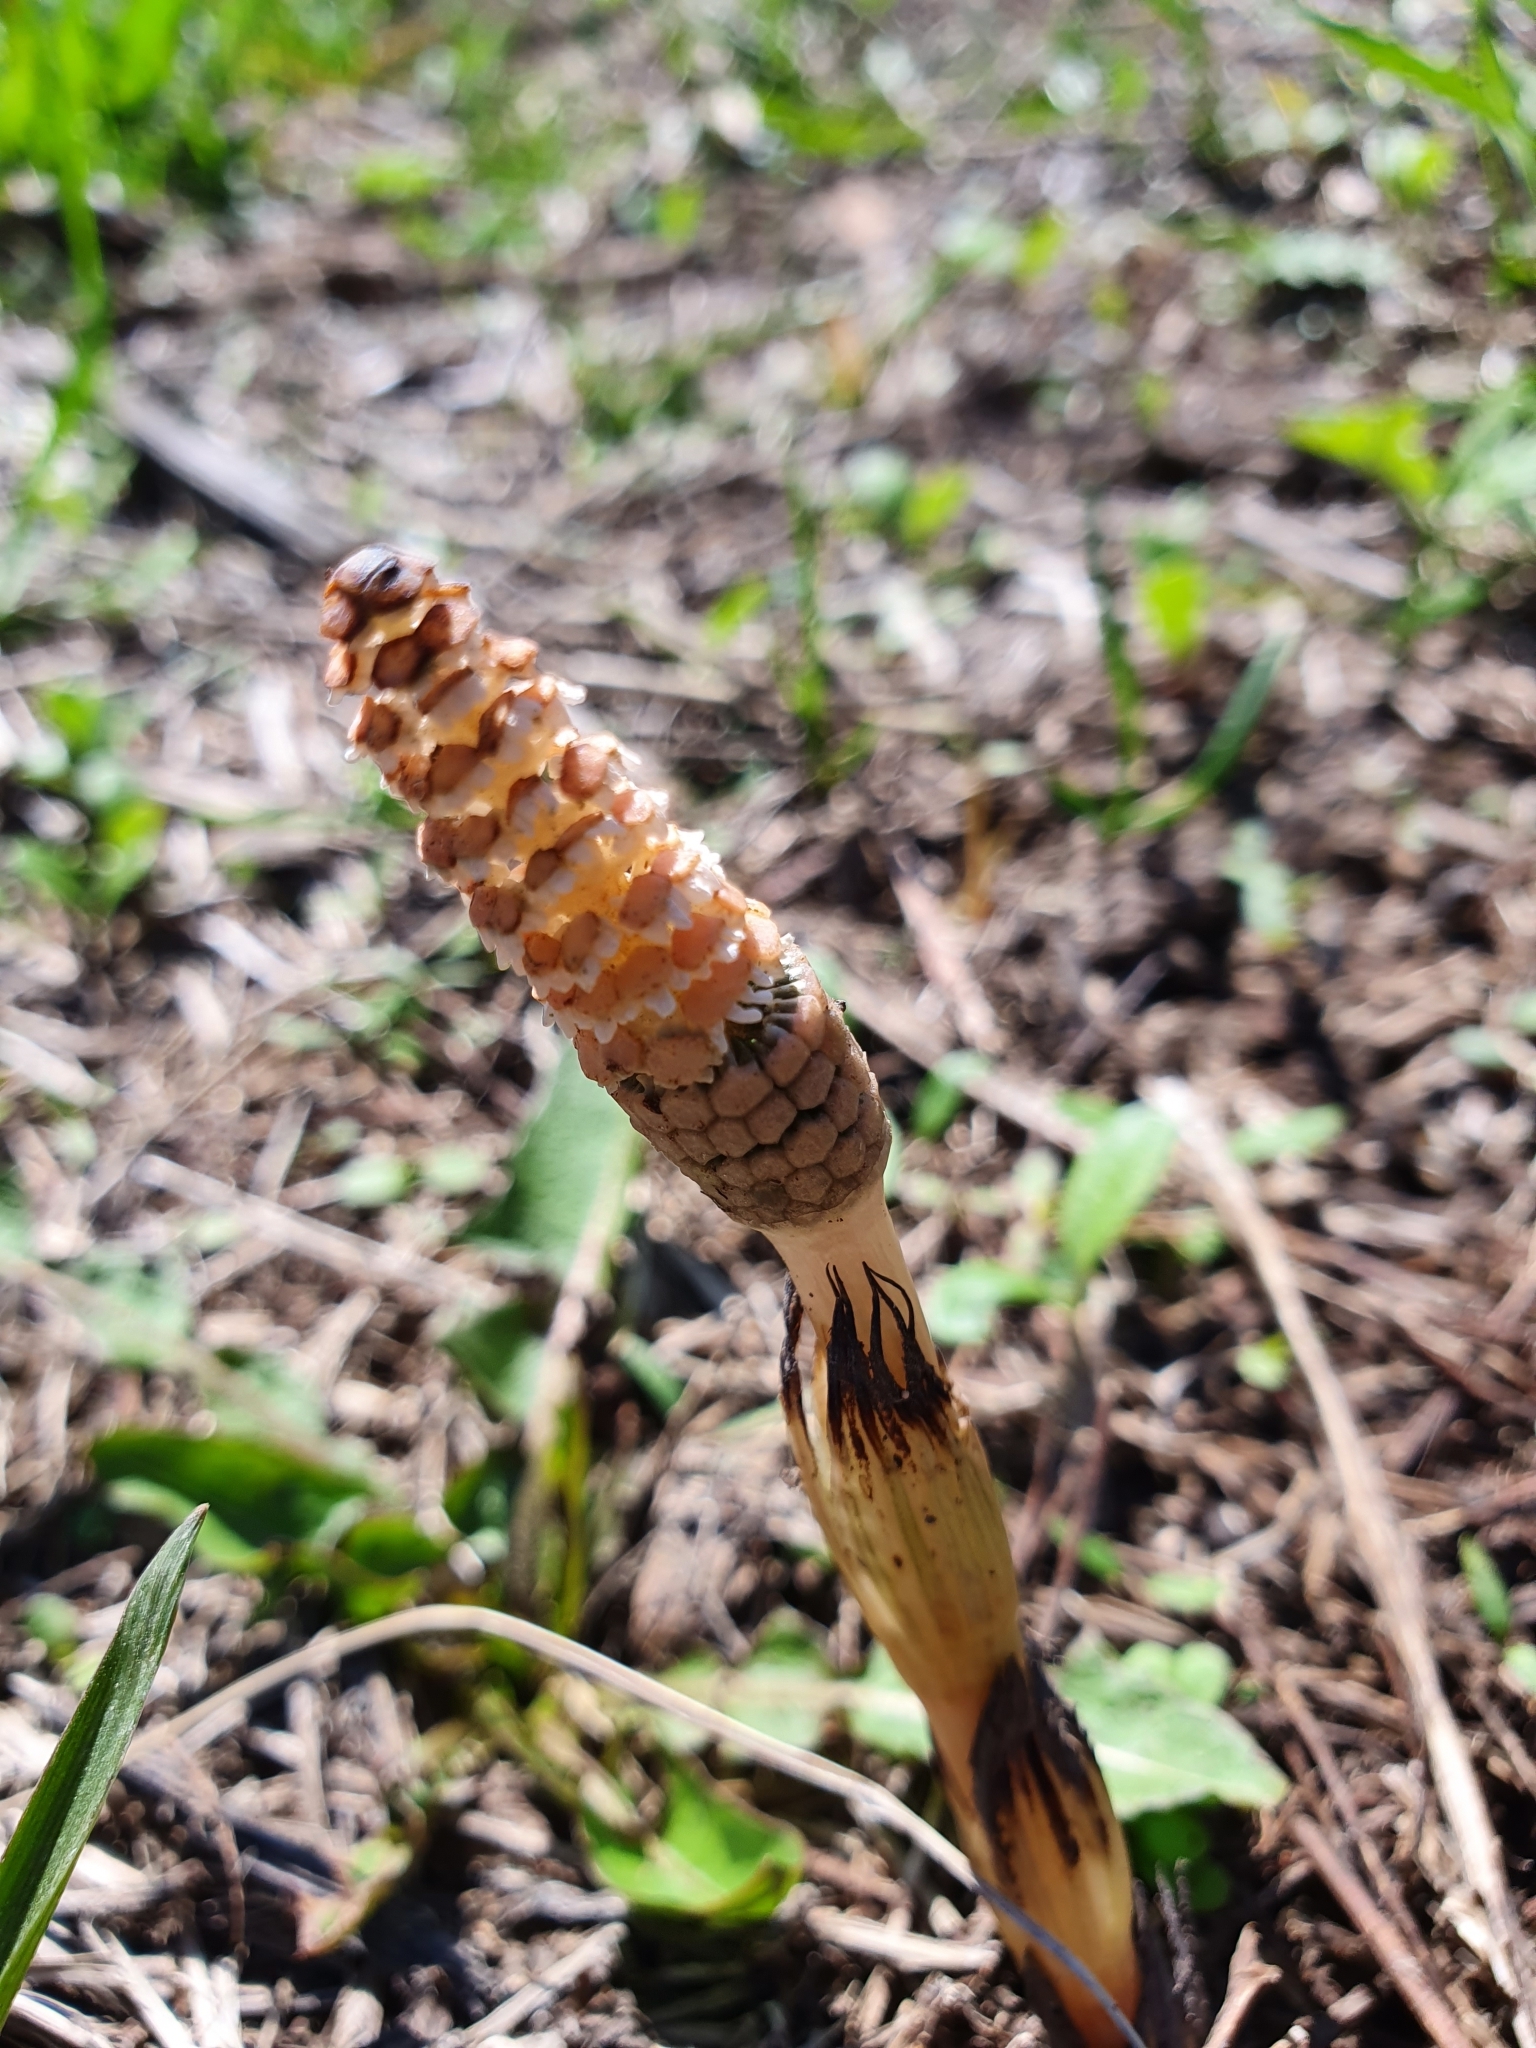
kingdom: Plantae
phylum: Tracheophyta
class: Polypodiopsida
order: Equisetales
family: Equisetaceae
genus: Equisetum
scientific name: Equisetum arvense
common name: Field horsetail
